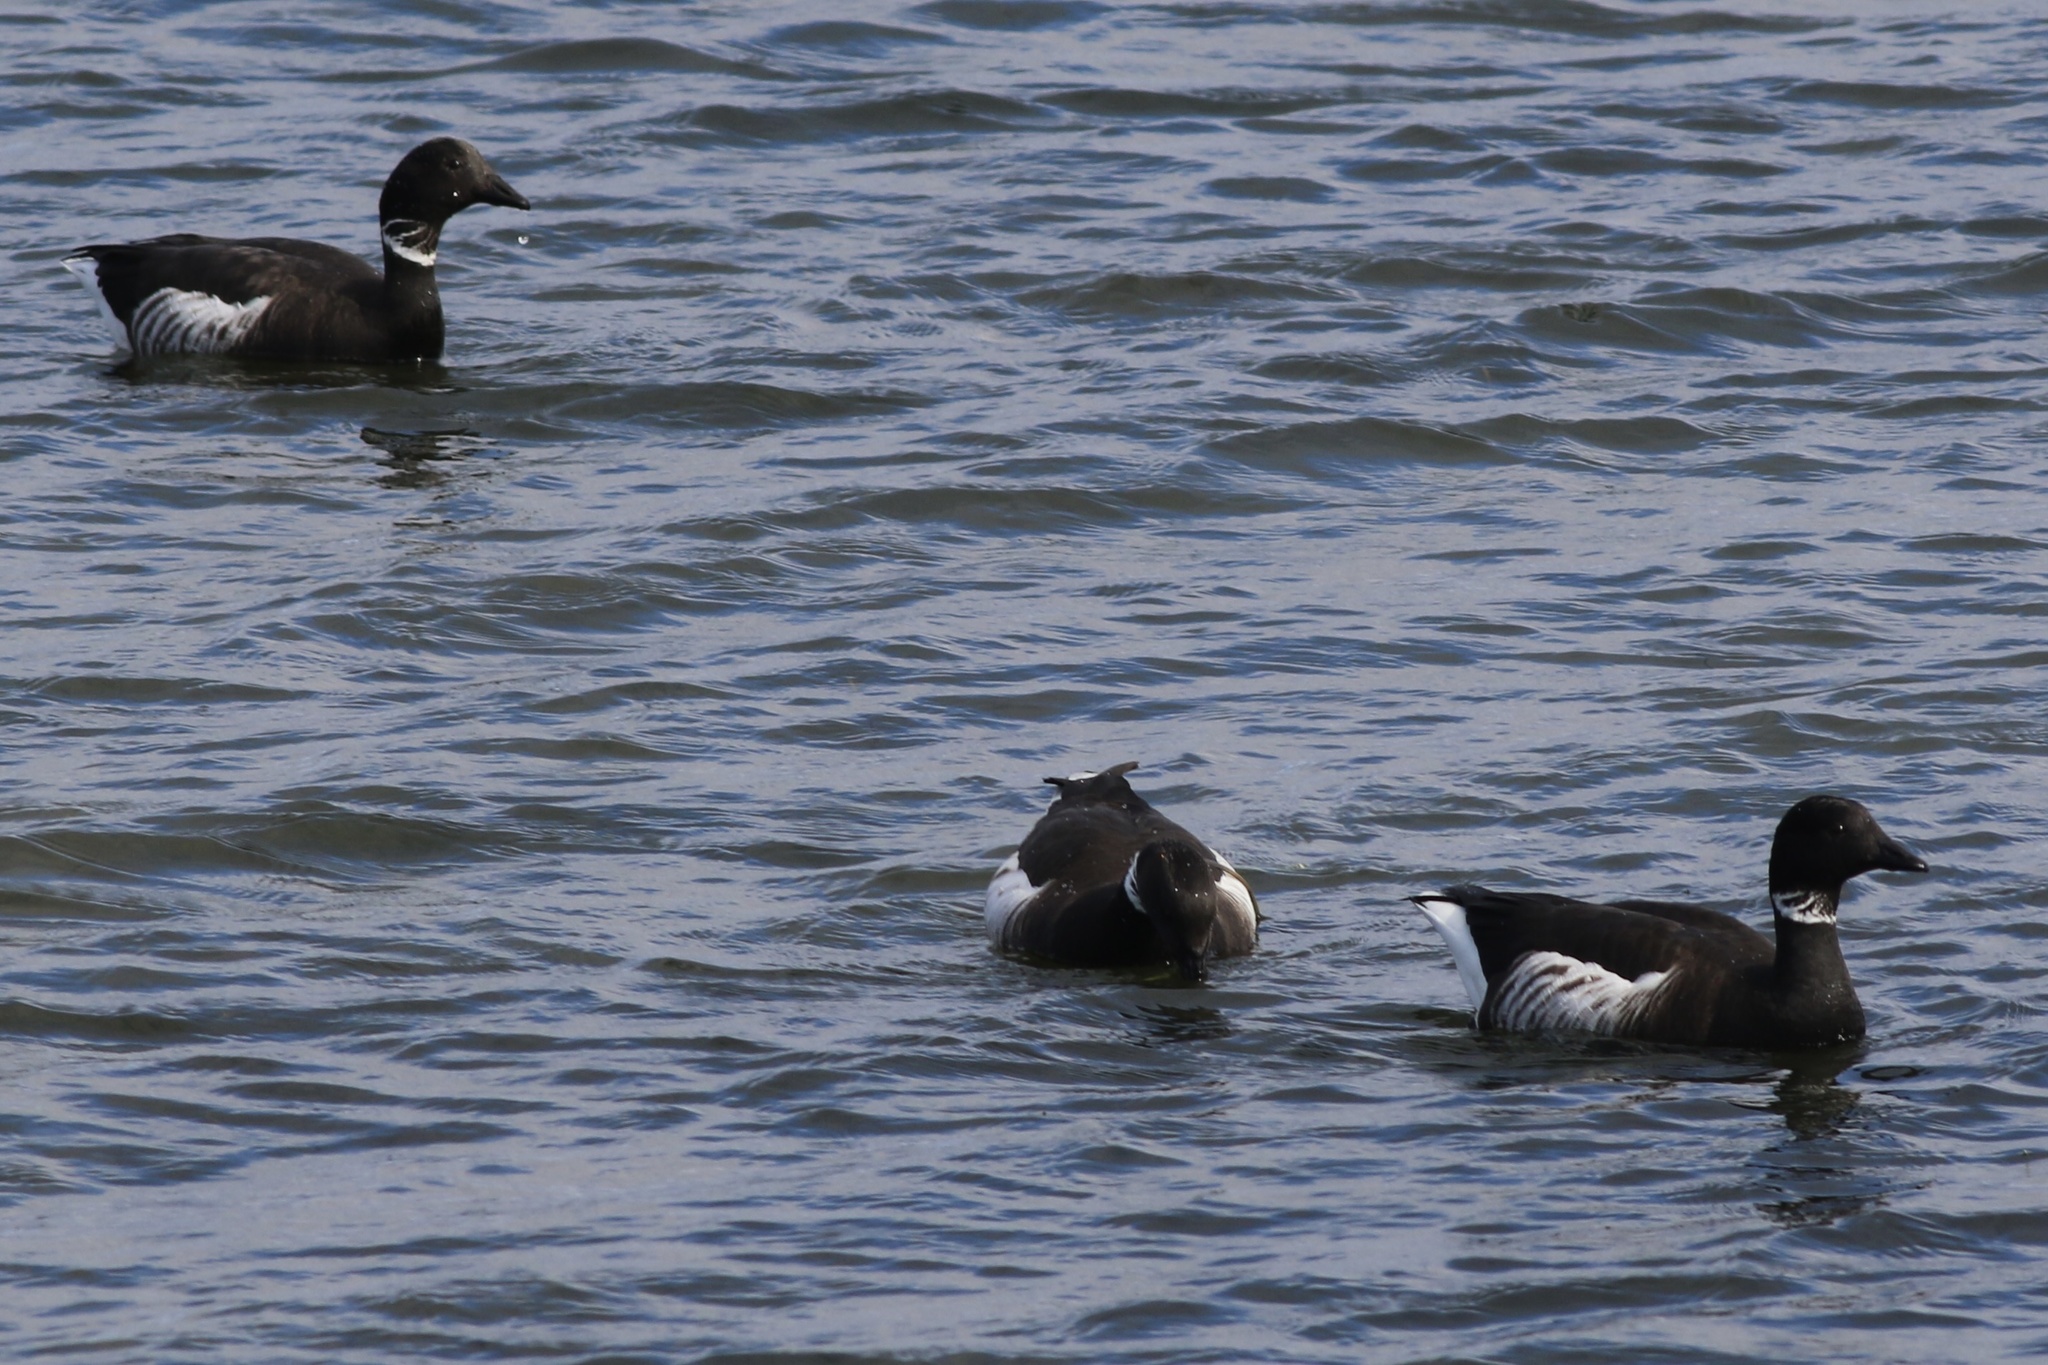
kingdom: Animalia
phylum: Chordata
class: Aves
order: Anseriformes
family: Anatidae
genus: Branta
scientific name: Branta bernicla
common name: Brant goose
